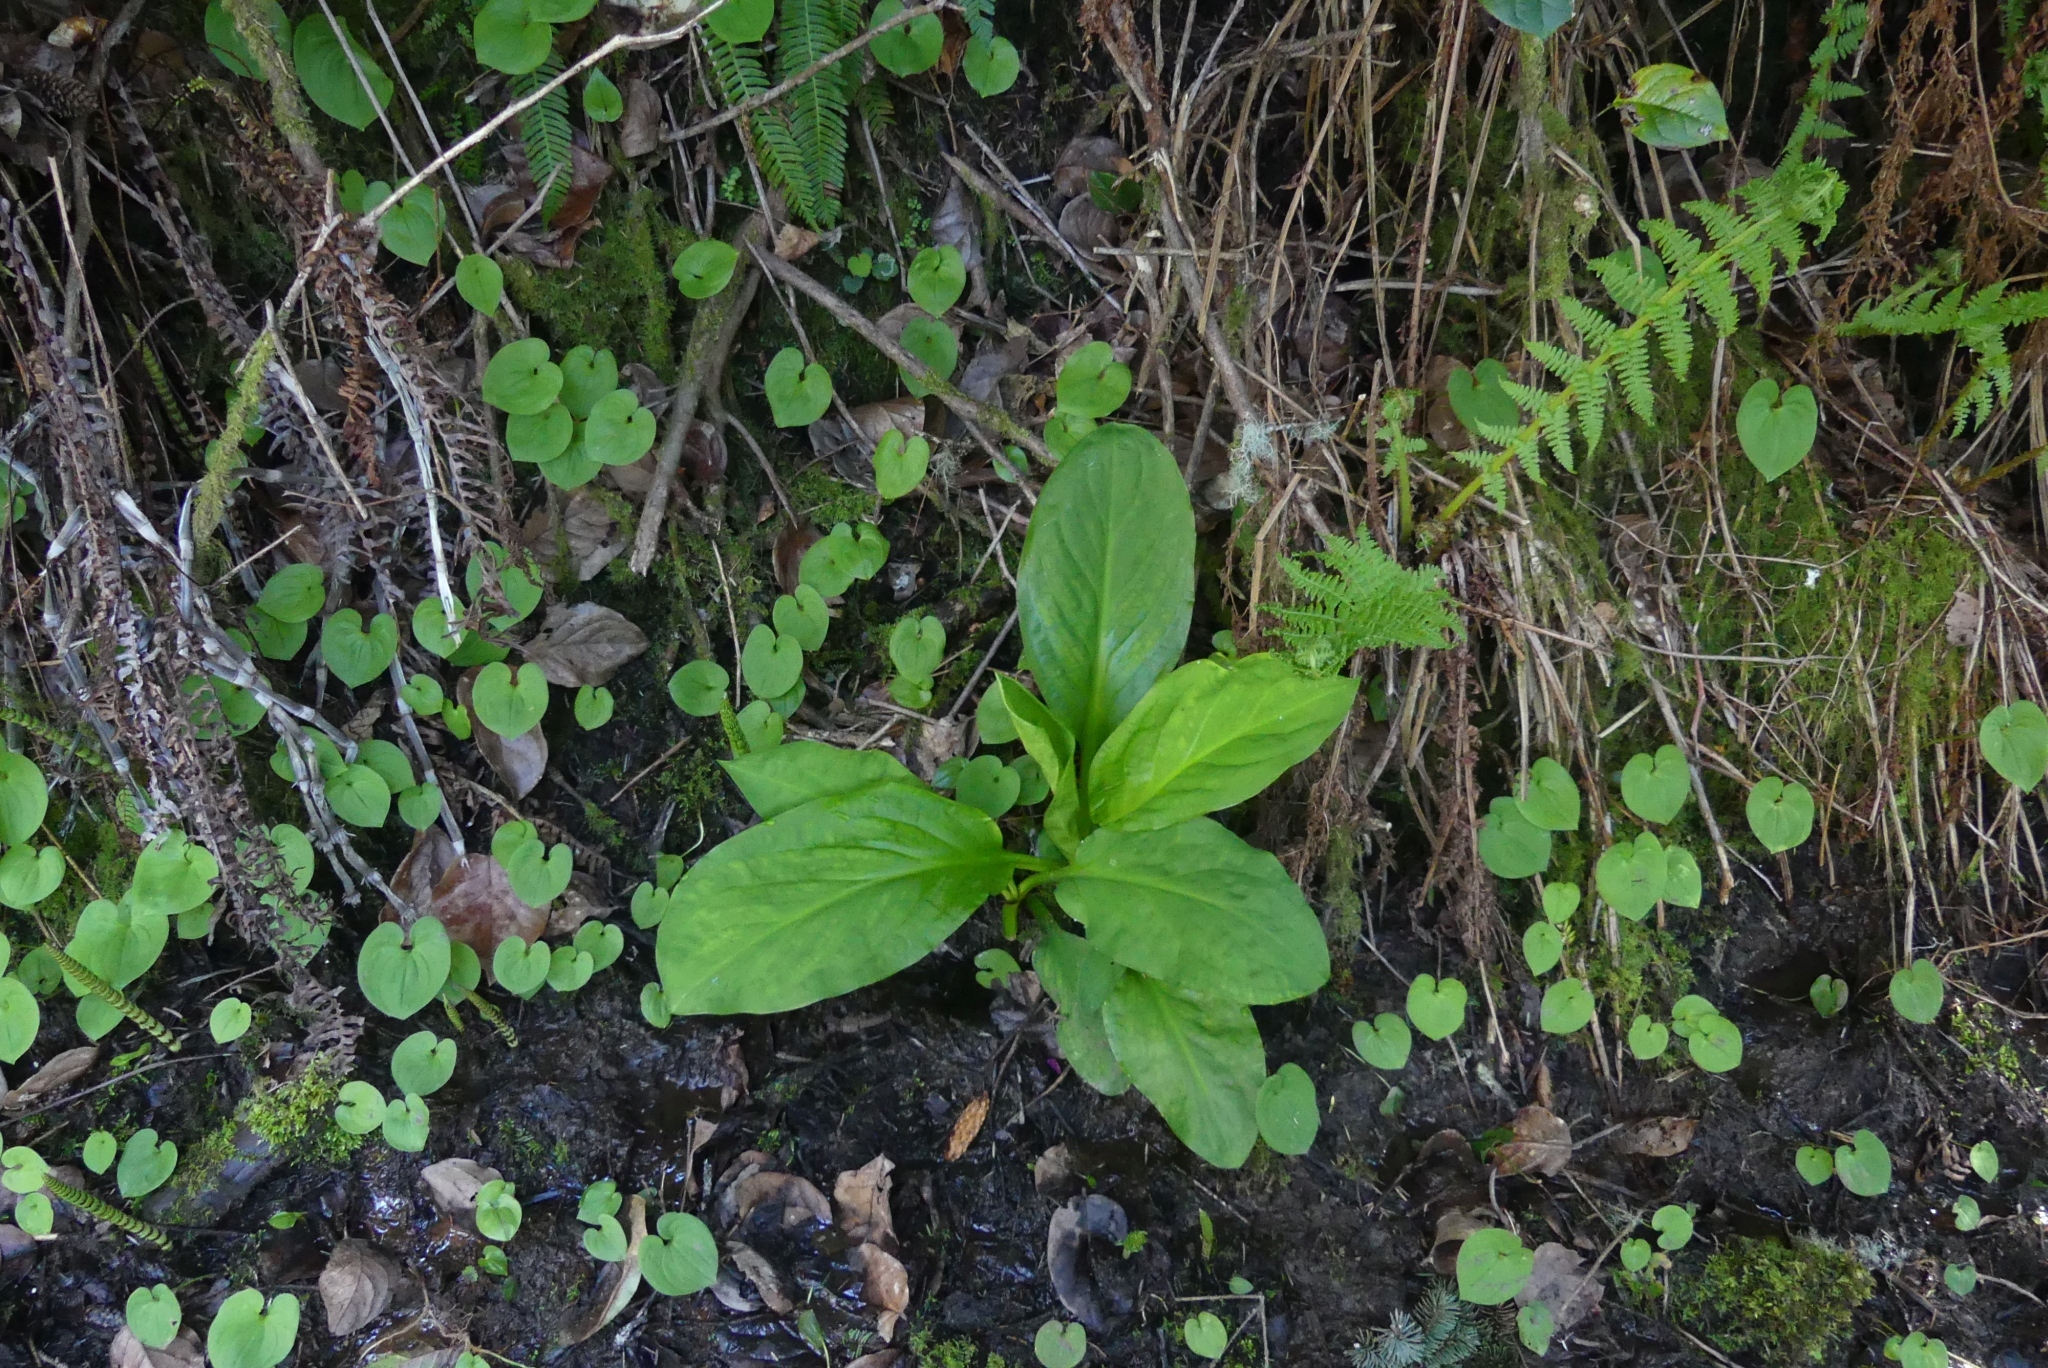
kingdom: Plantae
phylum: Tracheophyta
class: Liliopsida
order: Alismatales
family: Araceae
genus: Lysichiton
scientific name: Lysichiton americanus
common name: American skunk cabbage
